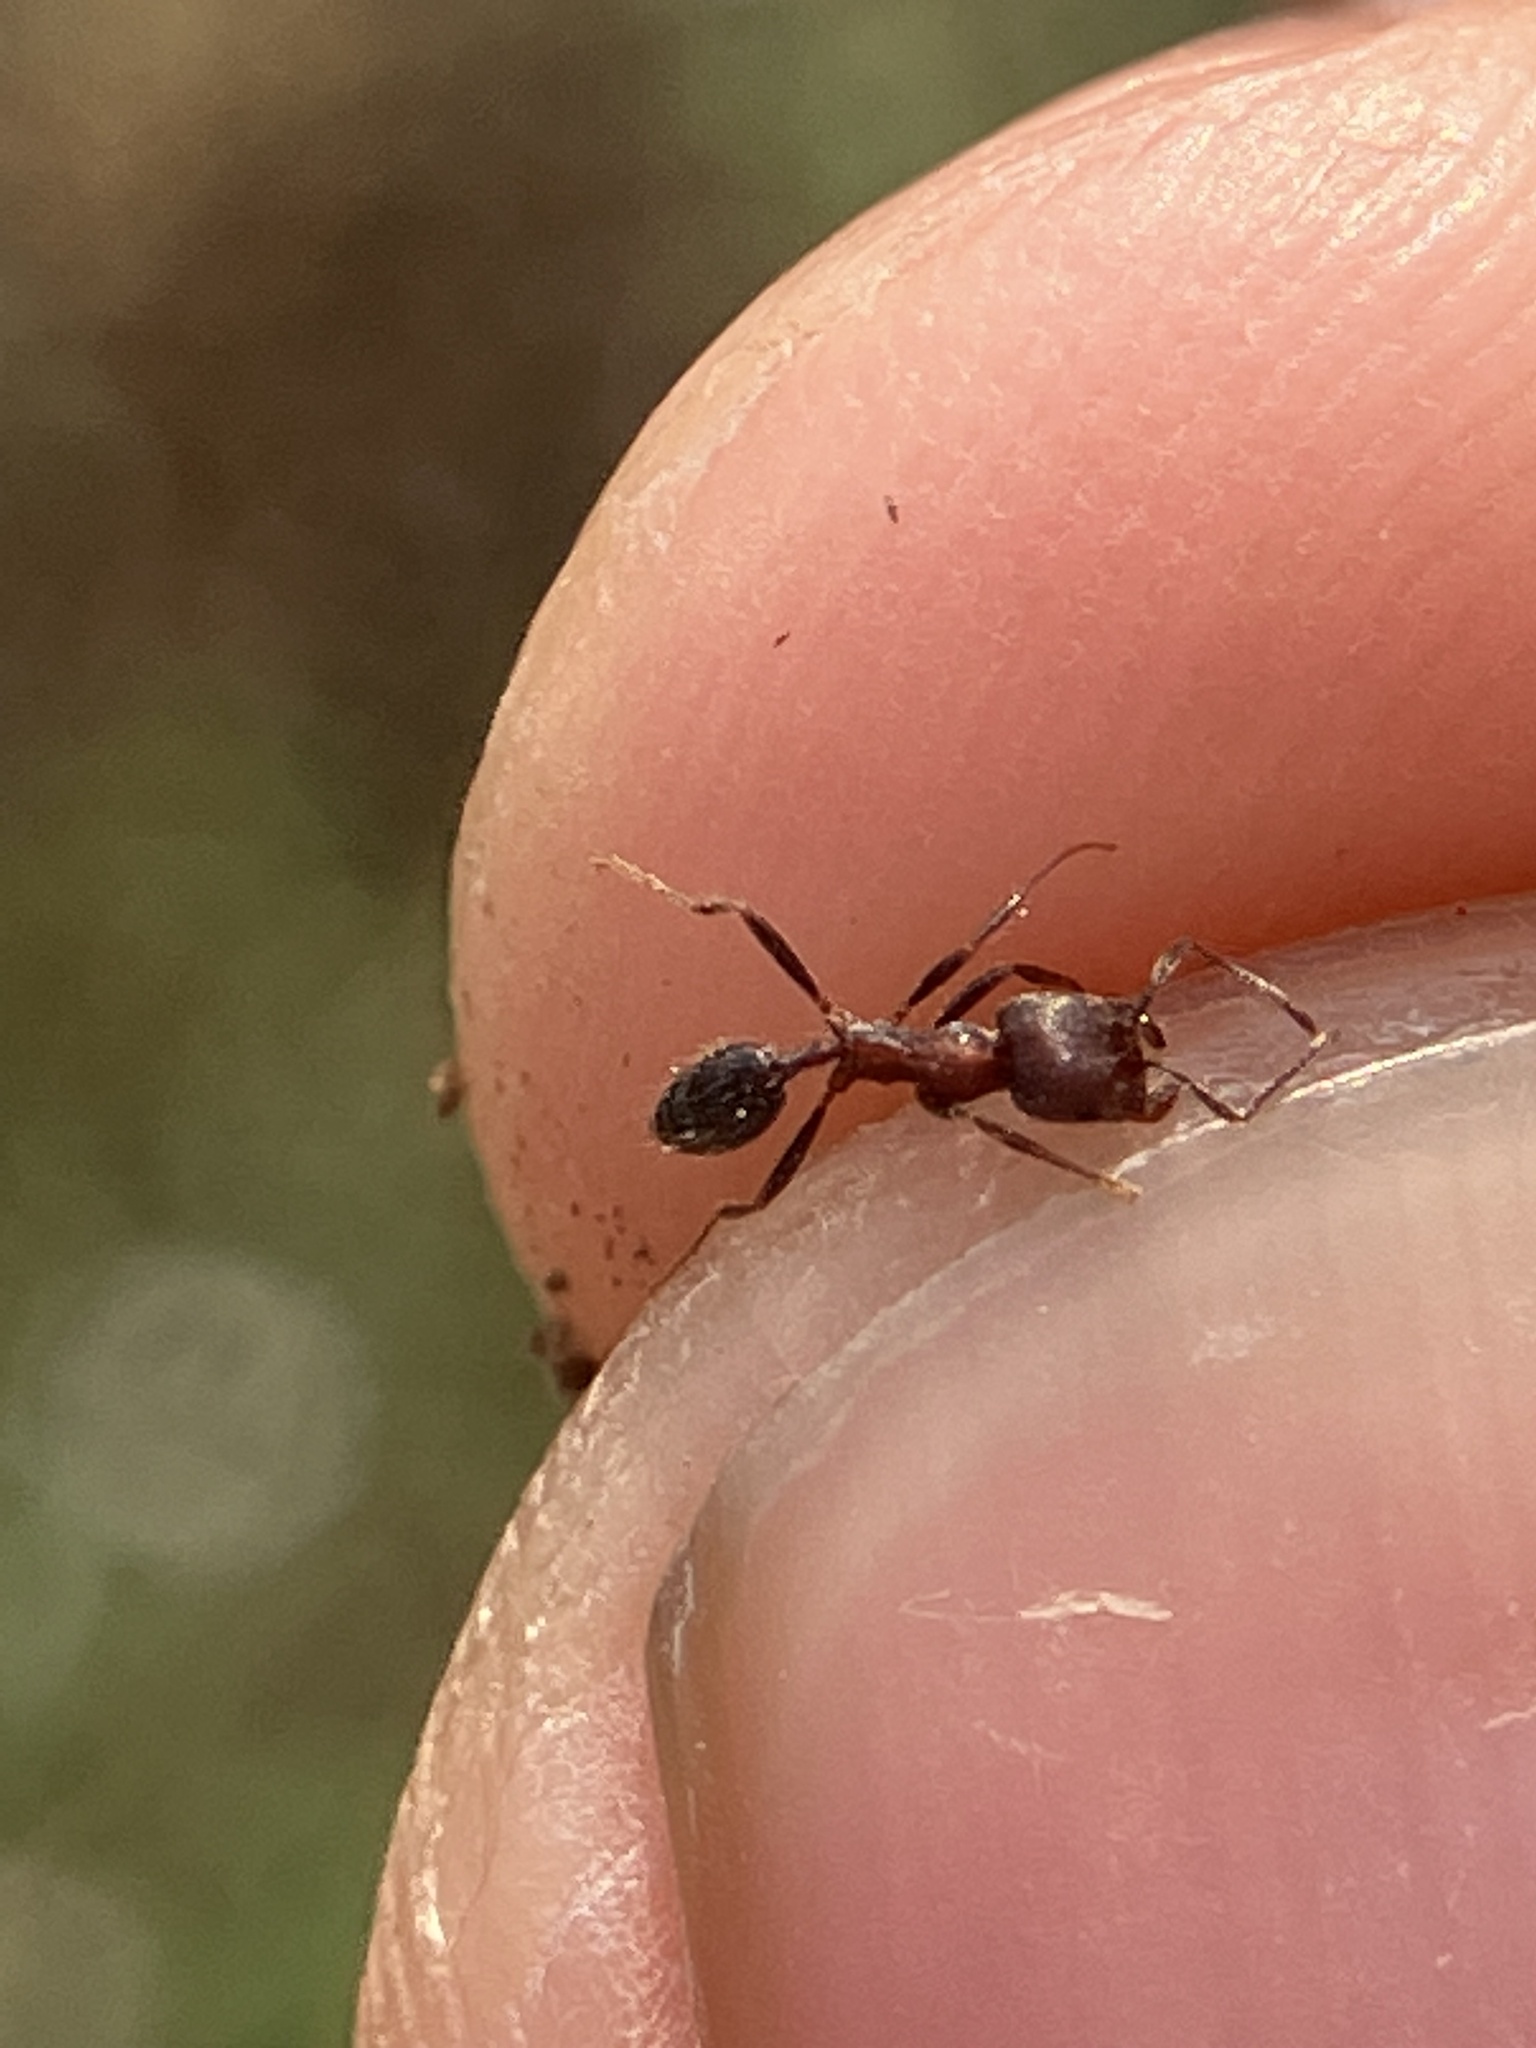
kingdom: Animalia
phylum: Arthropoda
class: Insecta
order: Hymenoptera
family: Formicidae
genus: Trichomyrmex
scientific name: Trichomyrmex
